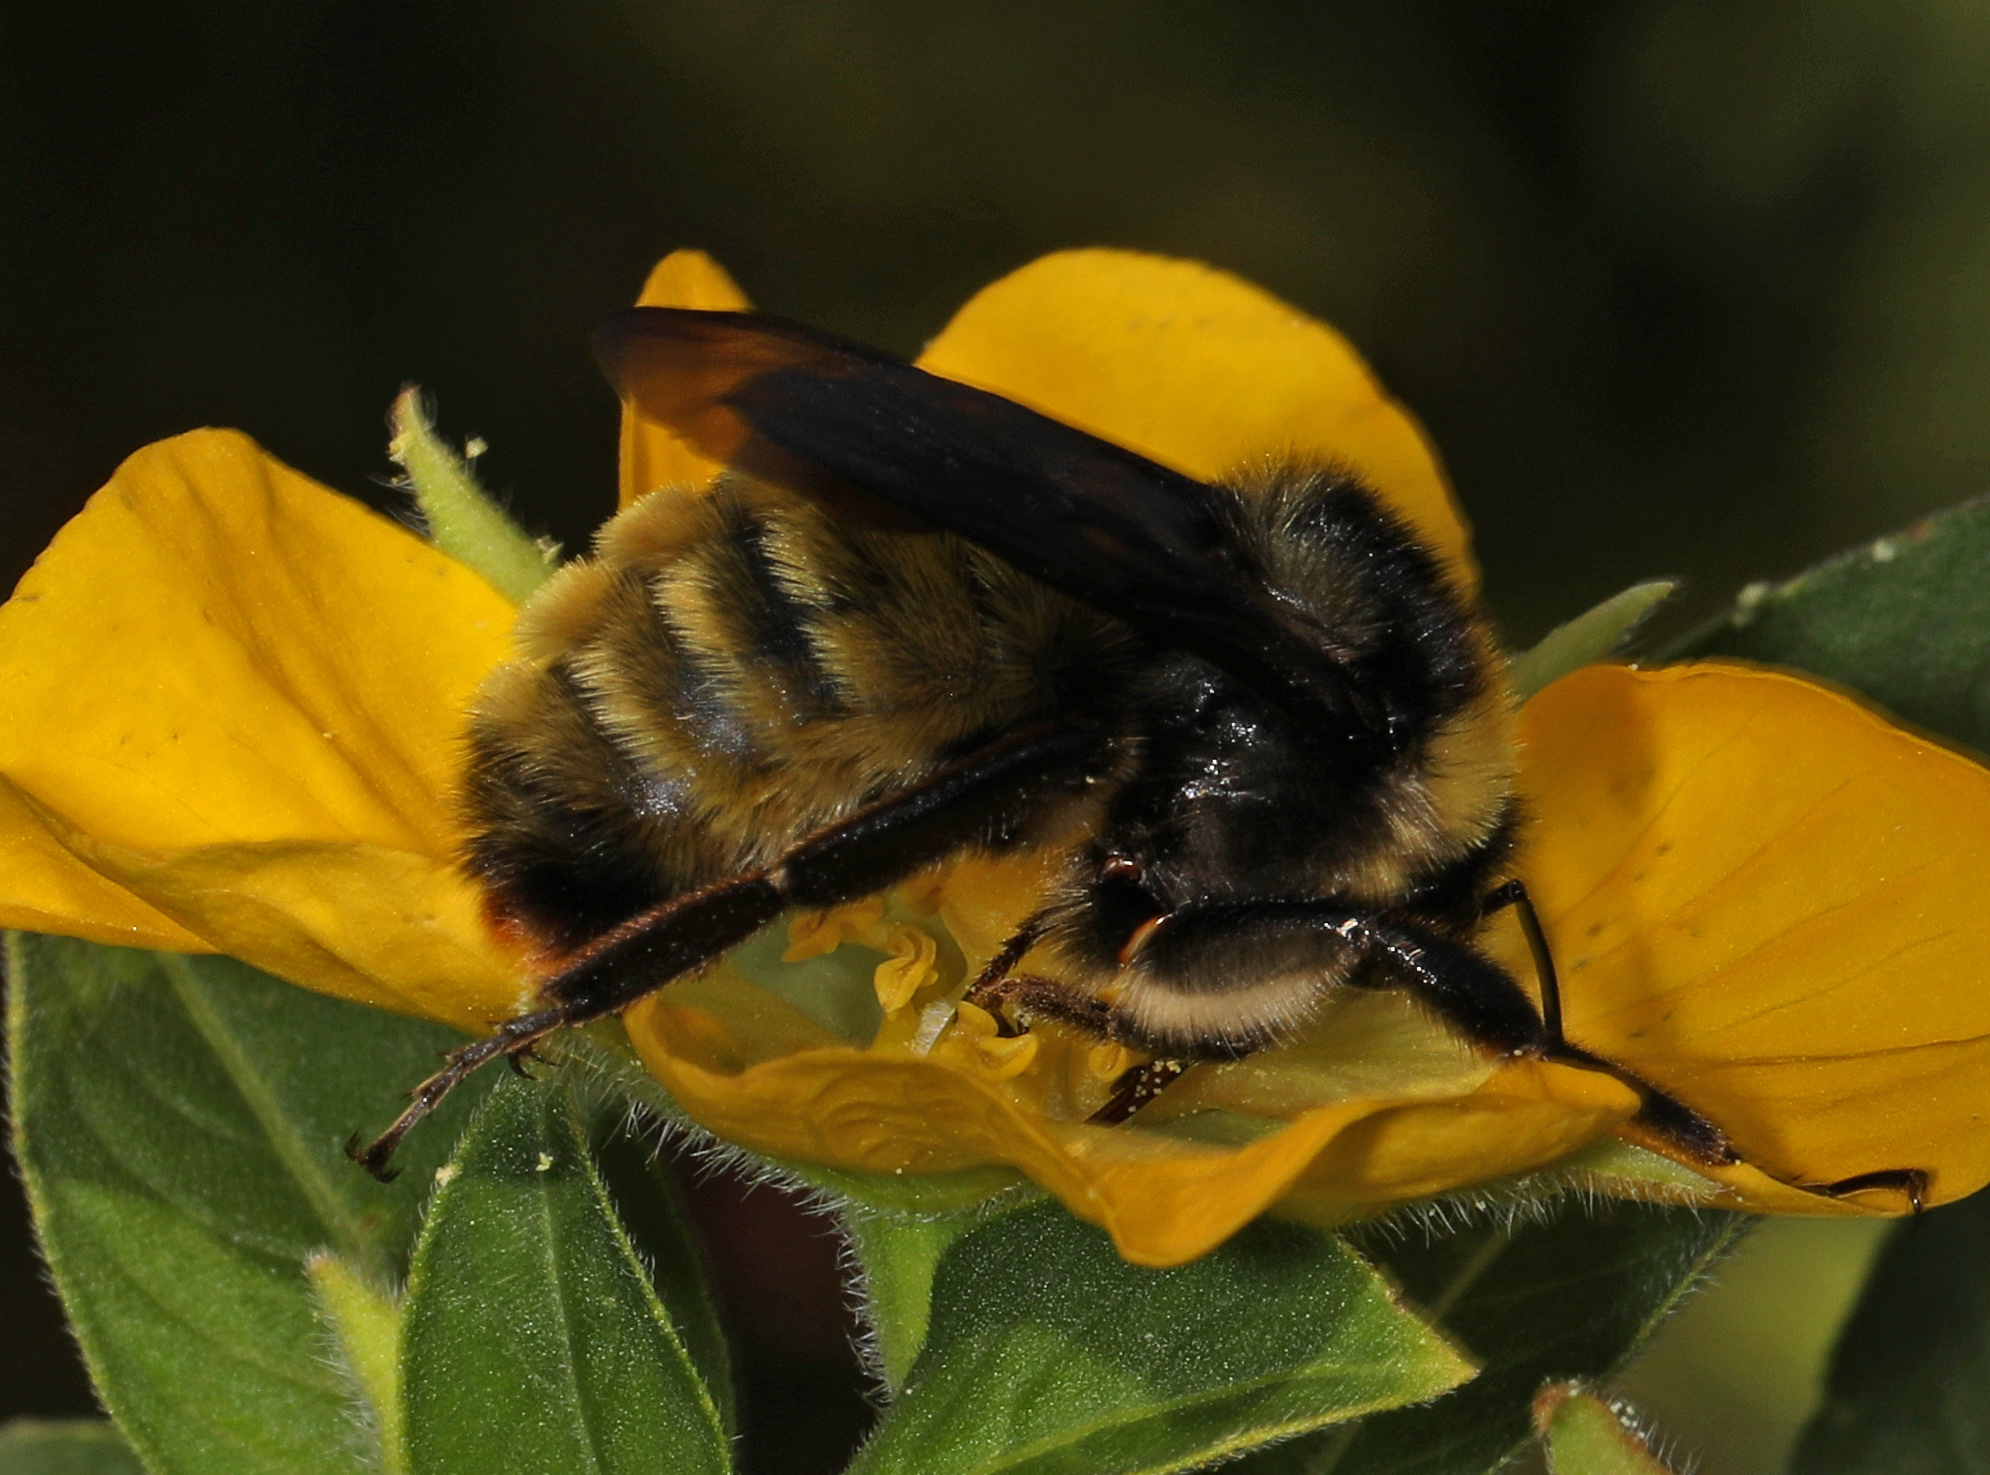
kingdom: Animalia
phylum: Arthropoda
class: Insecta
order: Hymenoptera
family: Apidae
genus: Bombus
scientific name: Bombus pensylvanicus
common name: Bumble bee
